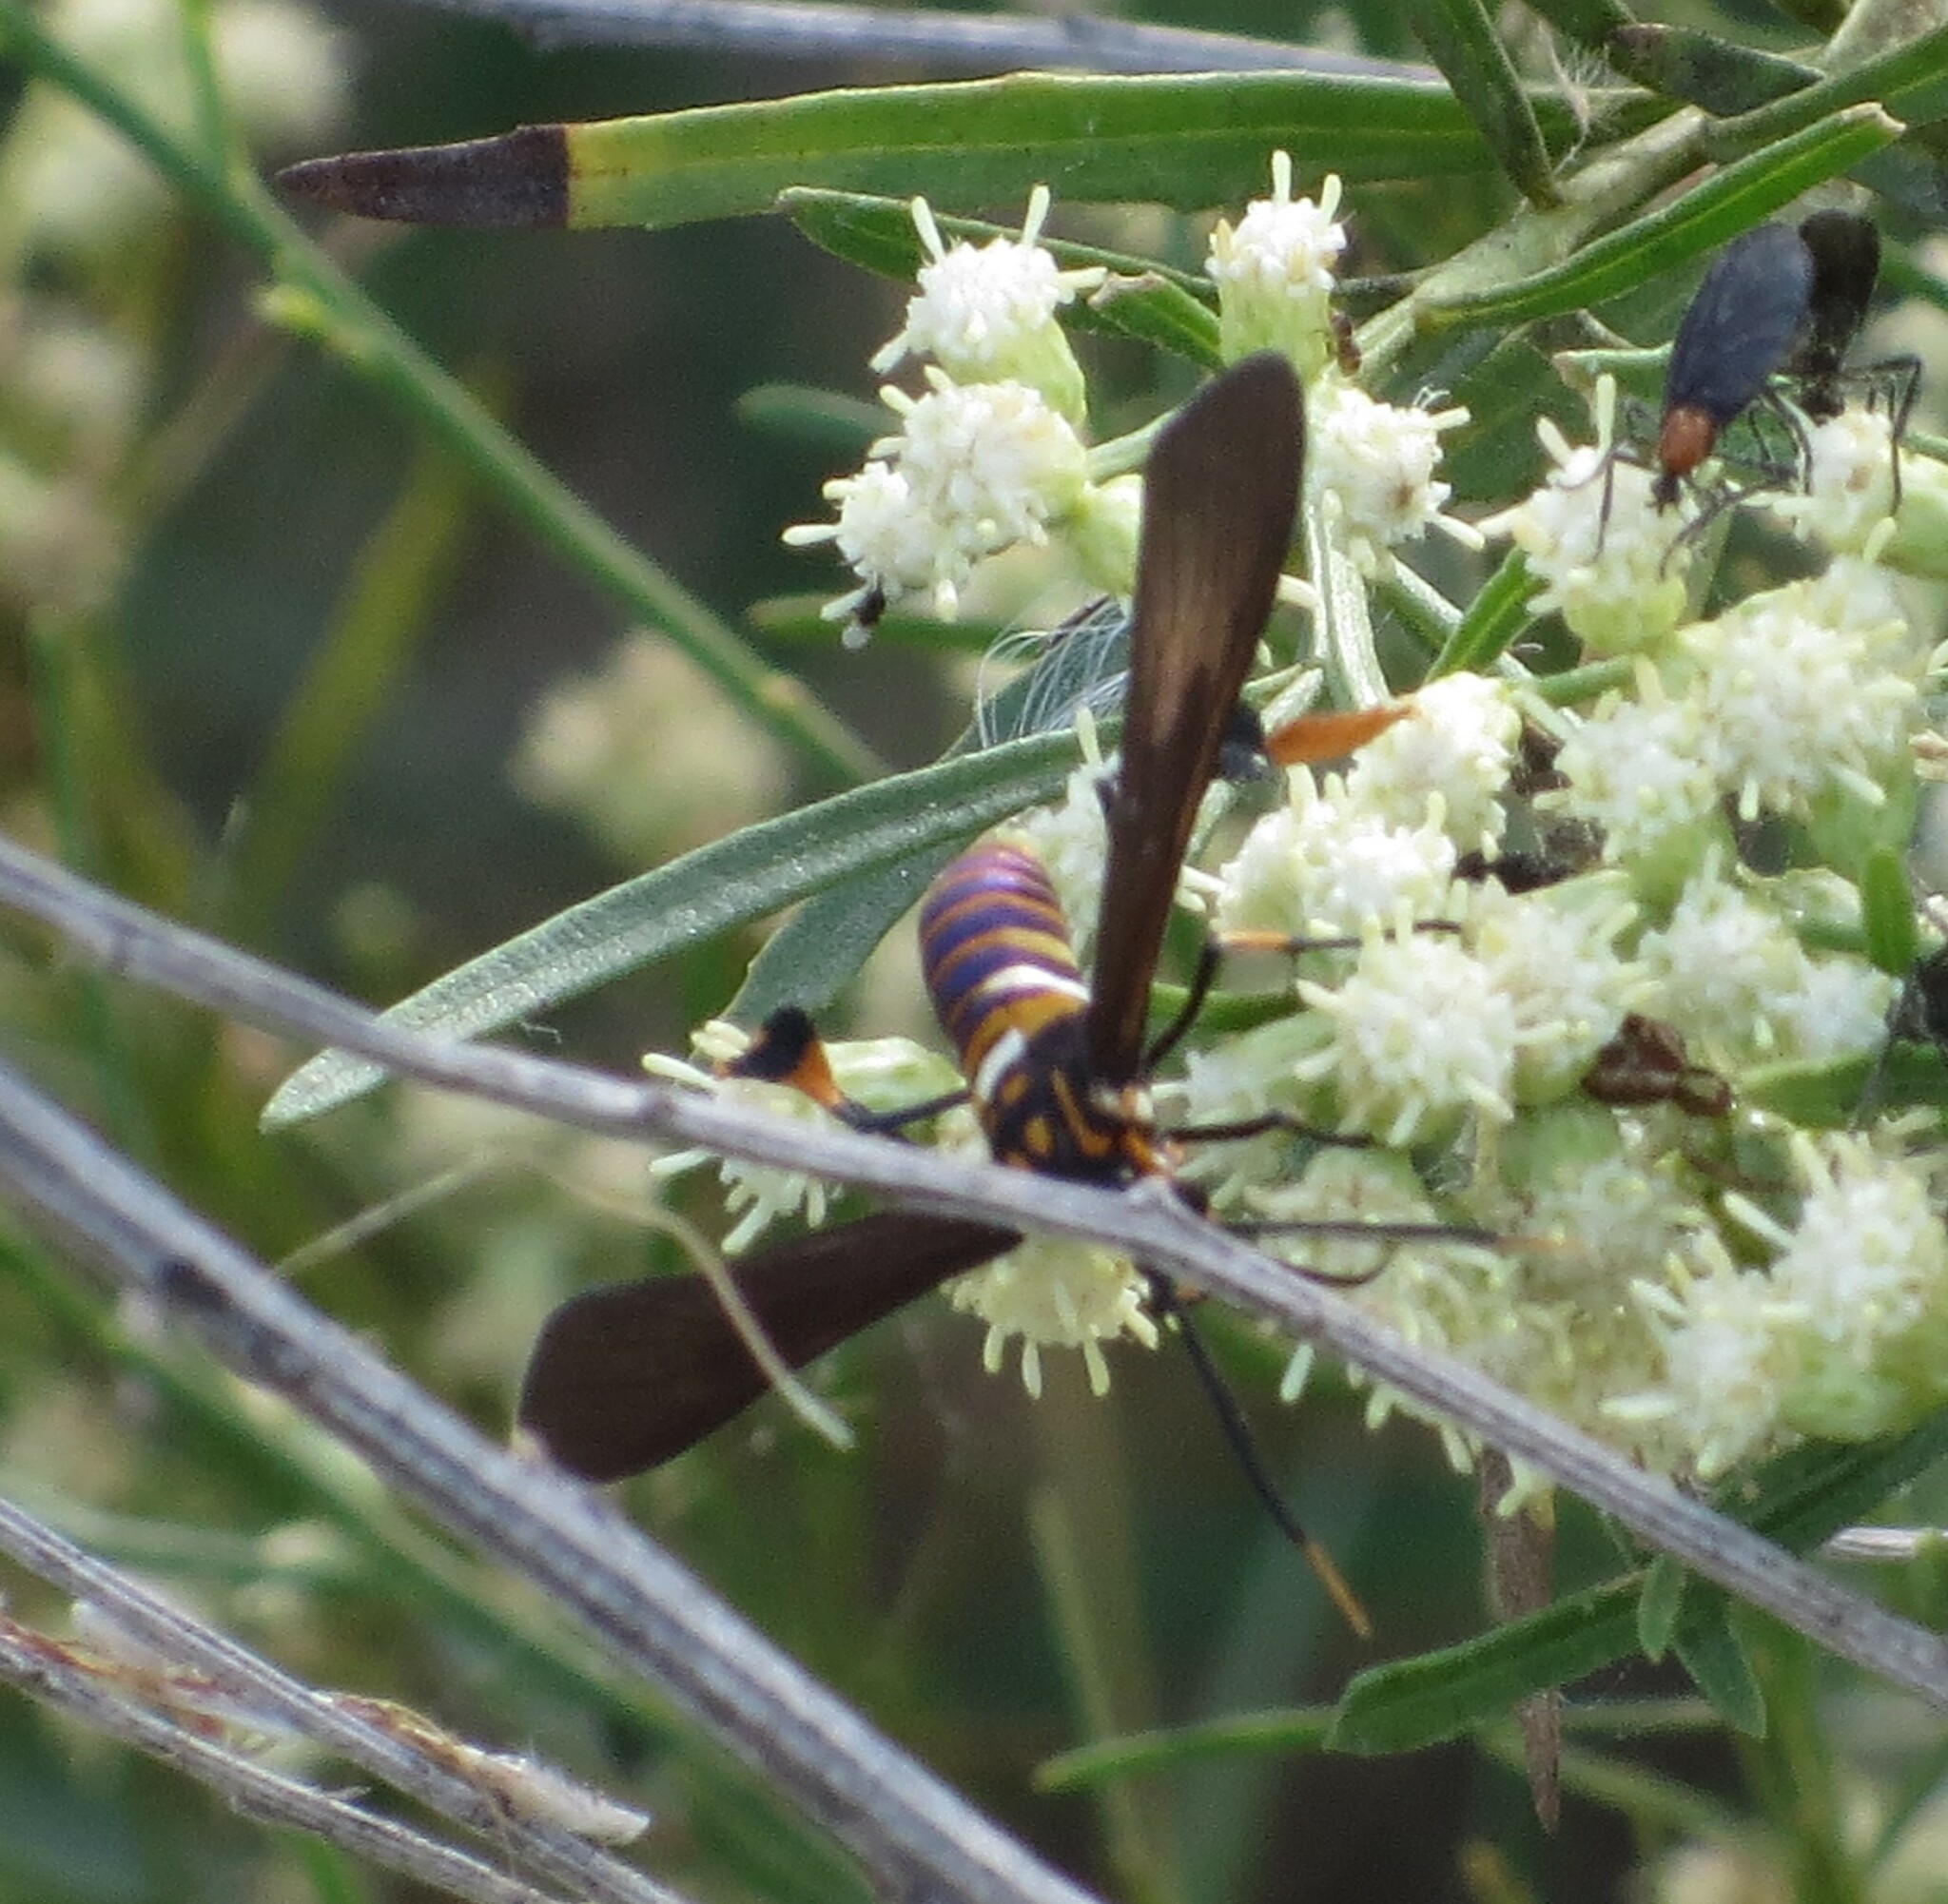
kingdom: Animalia
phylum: Arthropoda
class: Insecta
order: Lepidoptera
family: Erebidae
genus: Horama
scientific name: Horama panthalon
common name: Texas wasp moth
